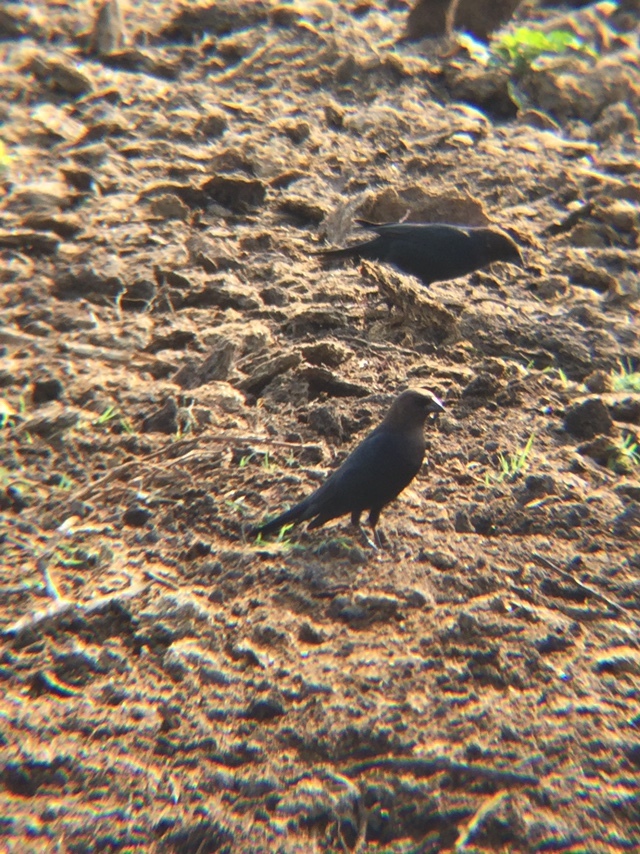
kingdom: Animalia
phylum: Chordata
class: Aves
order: Passeriformes
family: Icteridae
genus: Molothrus
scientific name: Molothrus ater
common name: Brown-headed cowbird
